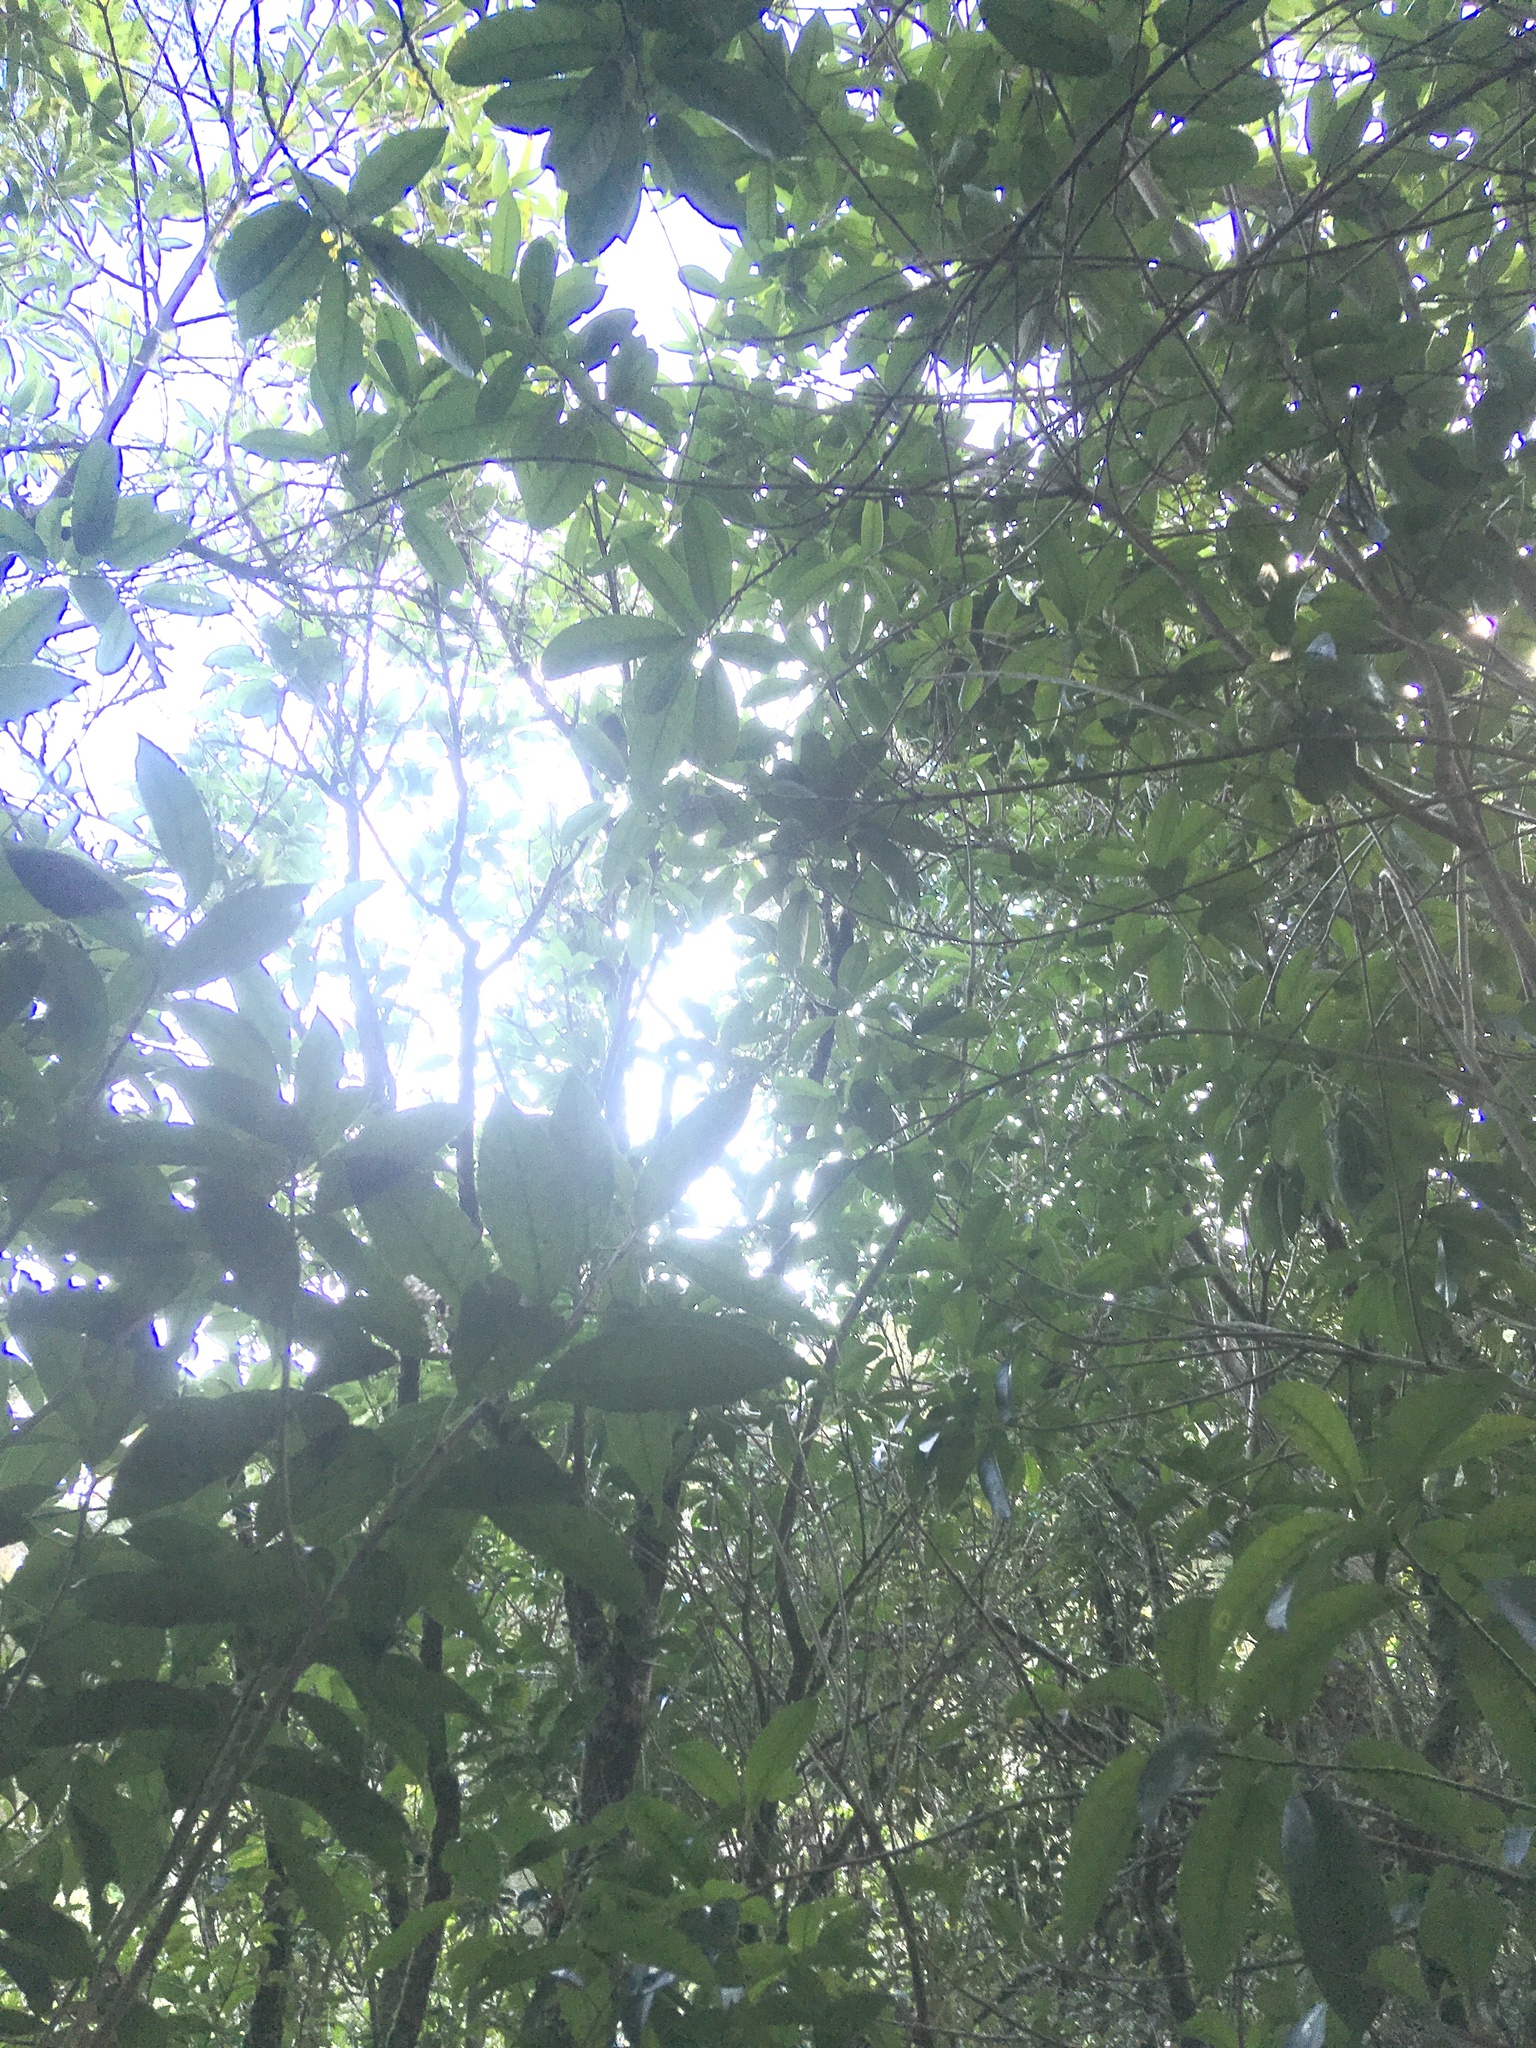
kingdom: Plantae
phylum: Tracheophyta
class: Magnoliopsida
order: Malpighiales
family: Violaceae
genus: Melicytus
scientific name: Melicytus ramiflorus
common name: Mahoe
